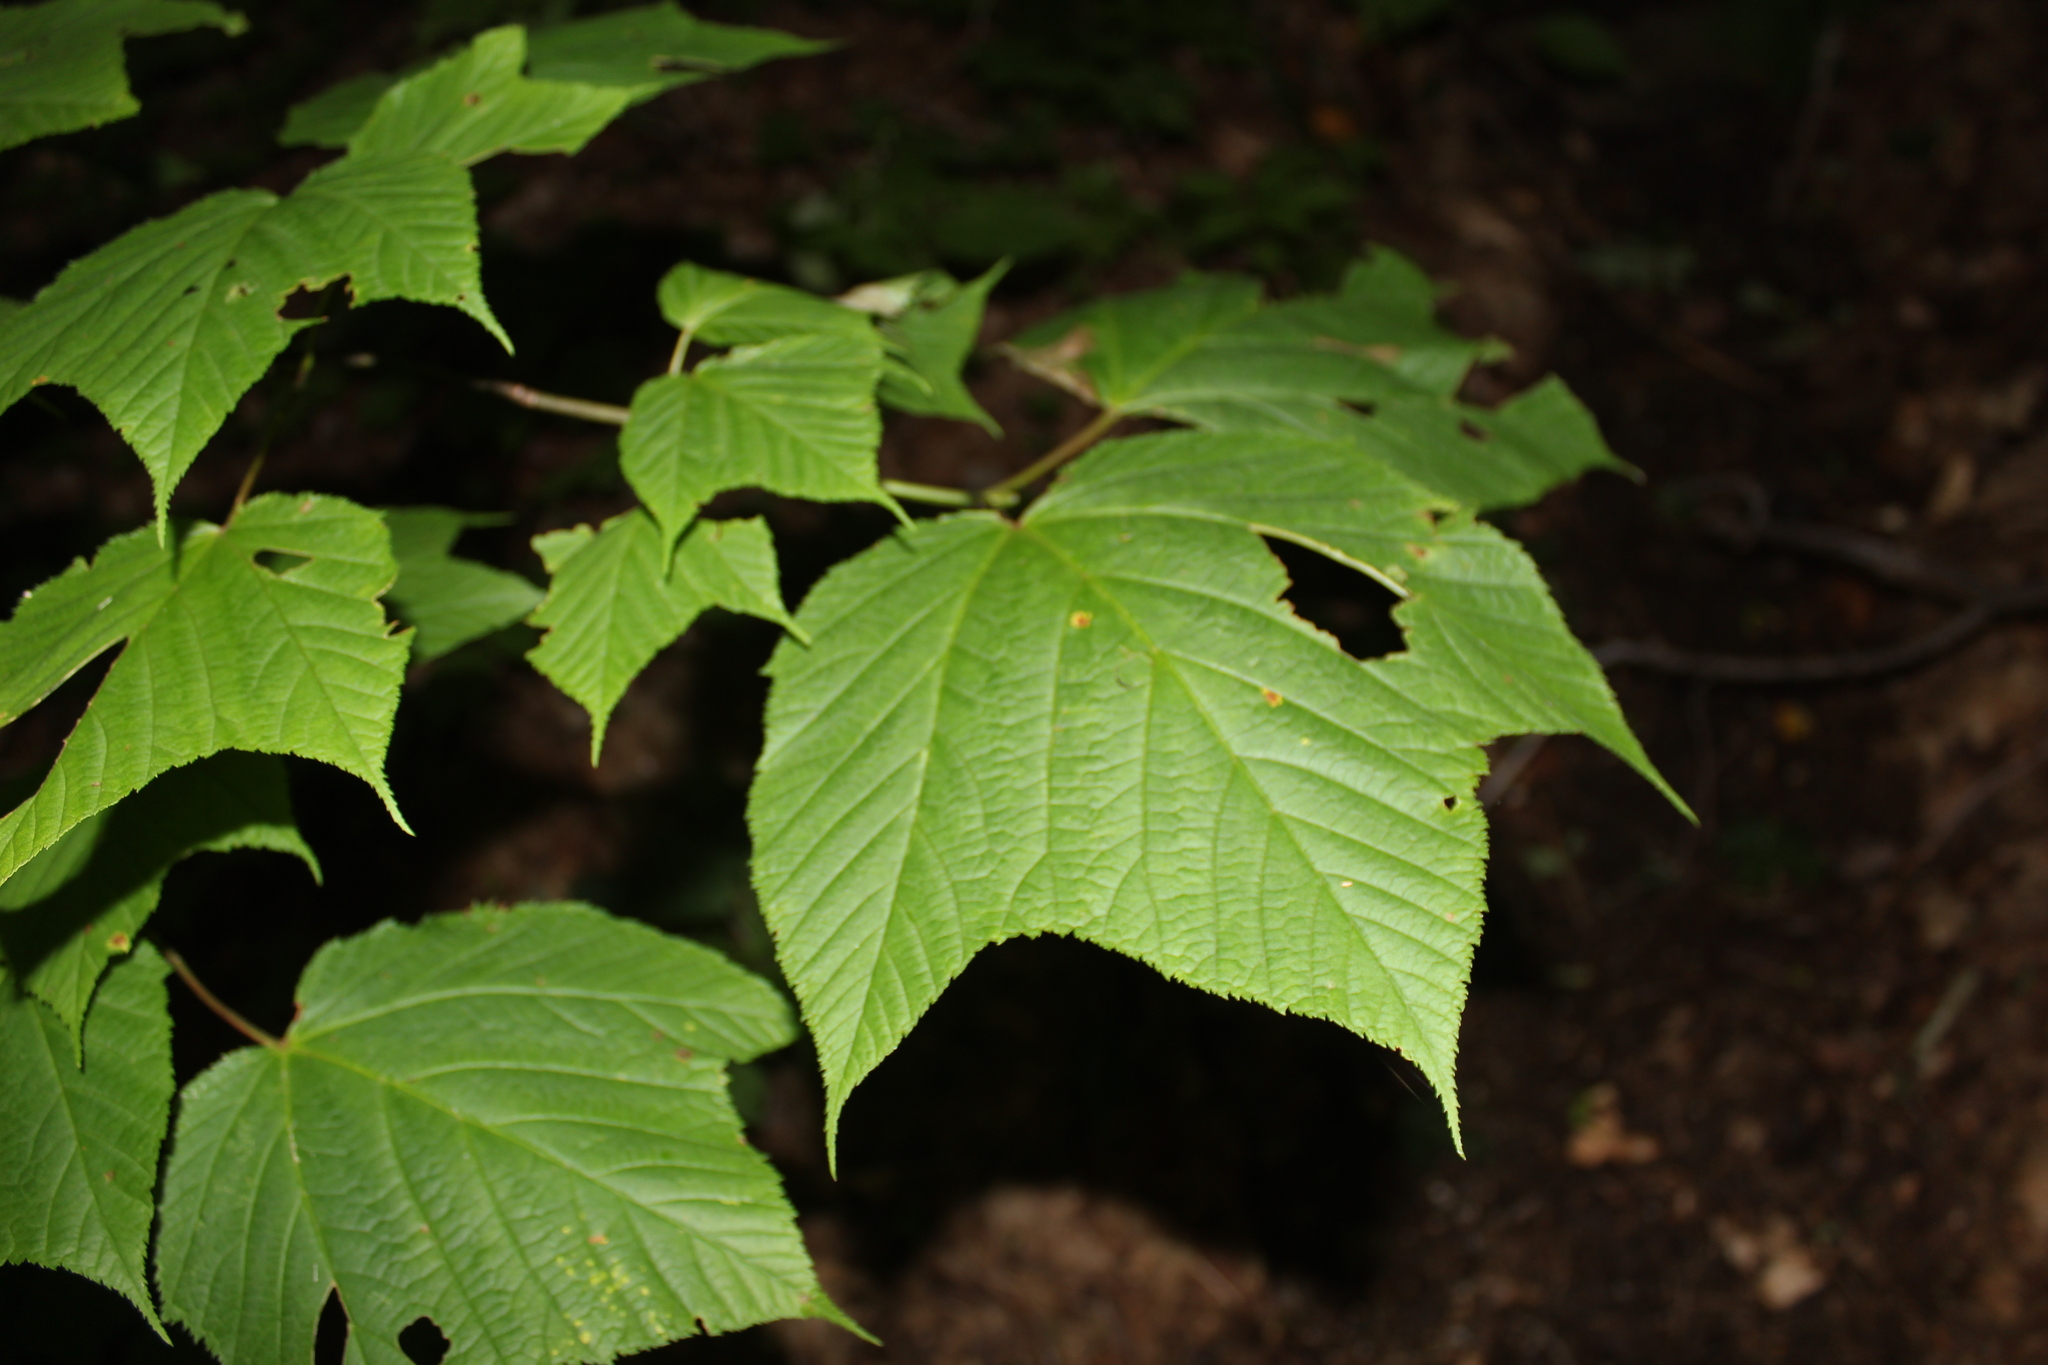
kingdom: Plantae
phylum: Tracheophyta
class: Magnoliopsida
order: Sapindales
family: Sapindaceae
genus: Acer
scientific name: Acer pensylvanicum
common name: Moosewood
